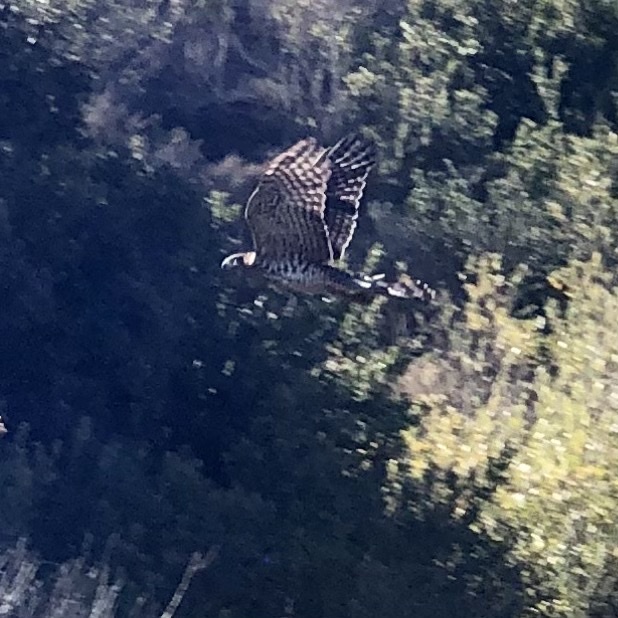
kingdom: Animalia
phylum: Chordata
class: Aves
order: Accipitriformes
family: Accipitridae
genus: Circus
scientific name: Circus cyaneus
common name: Hen harrier
